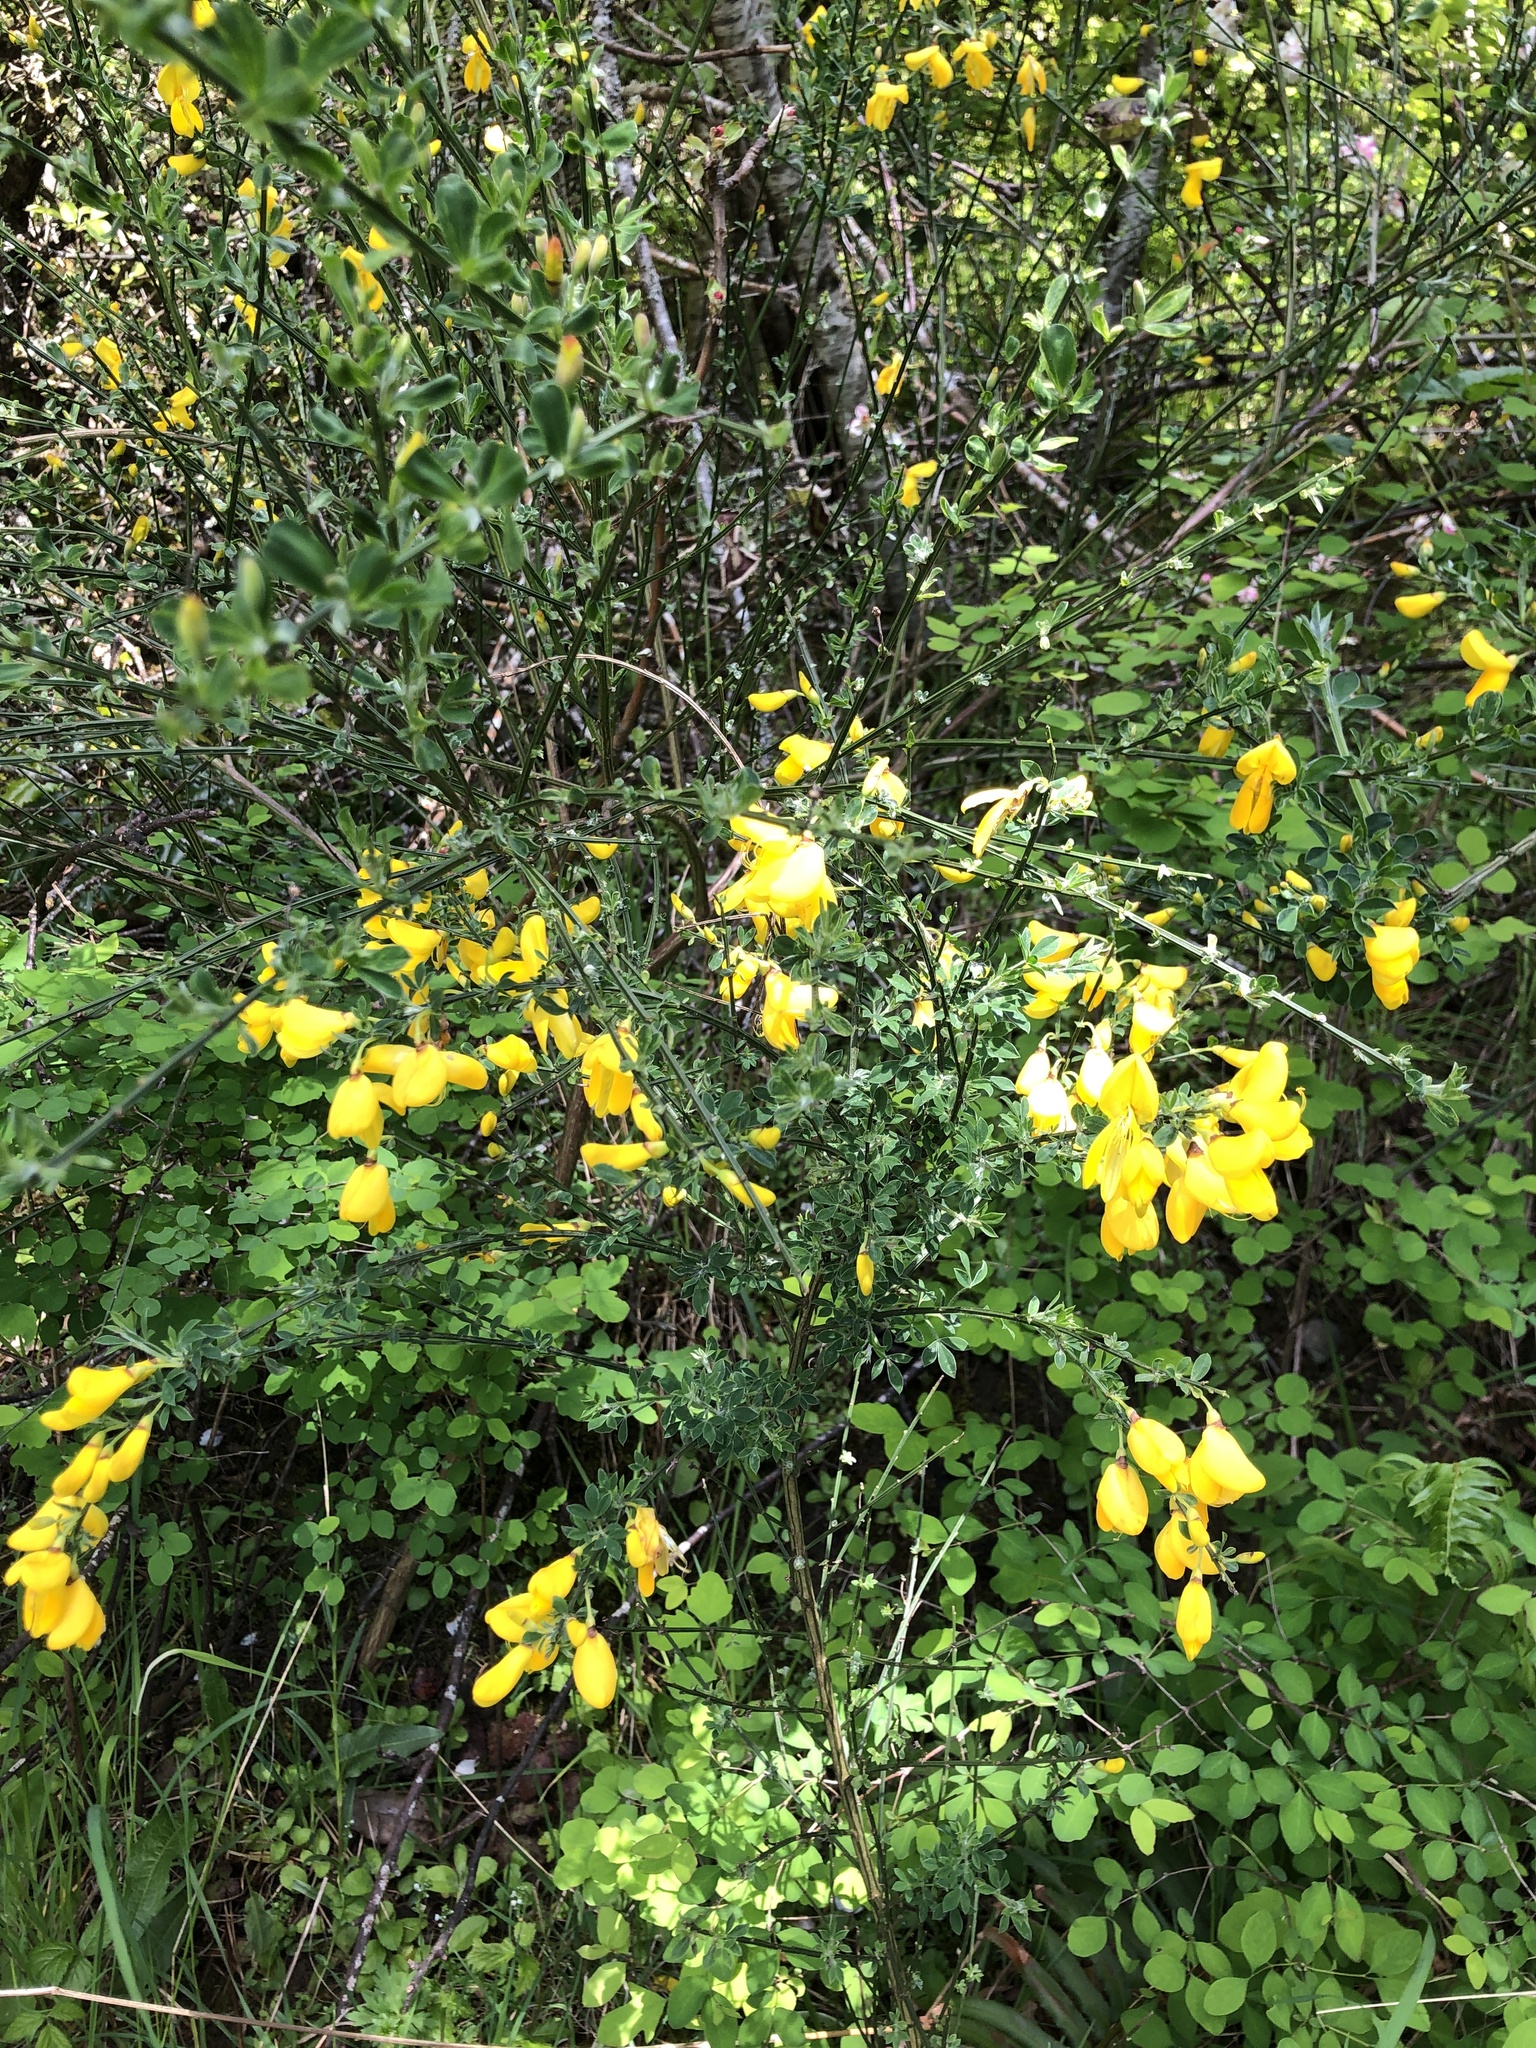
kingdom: Plantae
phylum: Tracheophyta
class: Magnoliopsida
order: Fabales
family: Fabaceae
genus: Cytisus
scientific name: Cytisus scoparius
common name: Scotch broom
